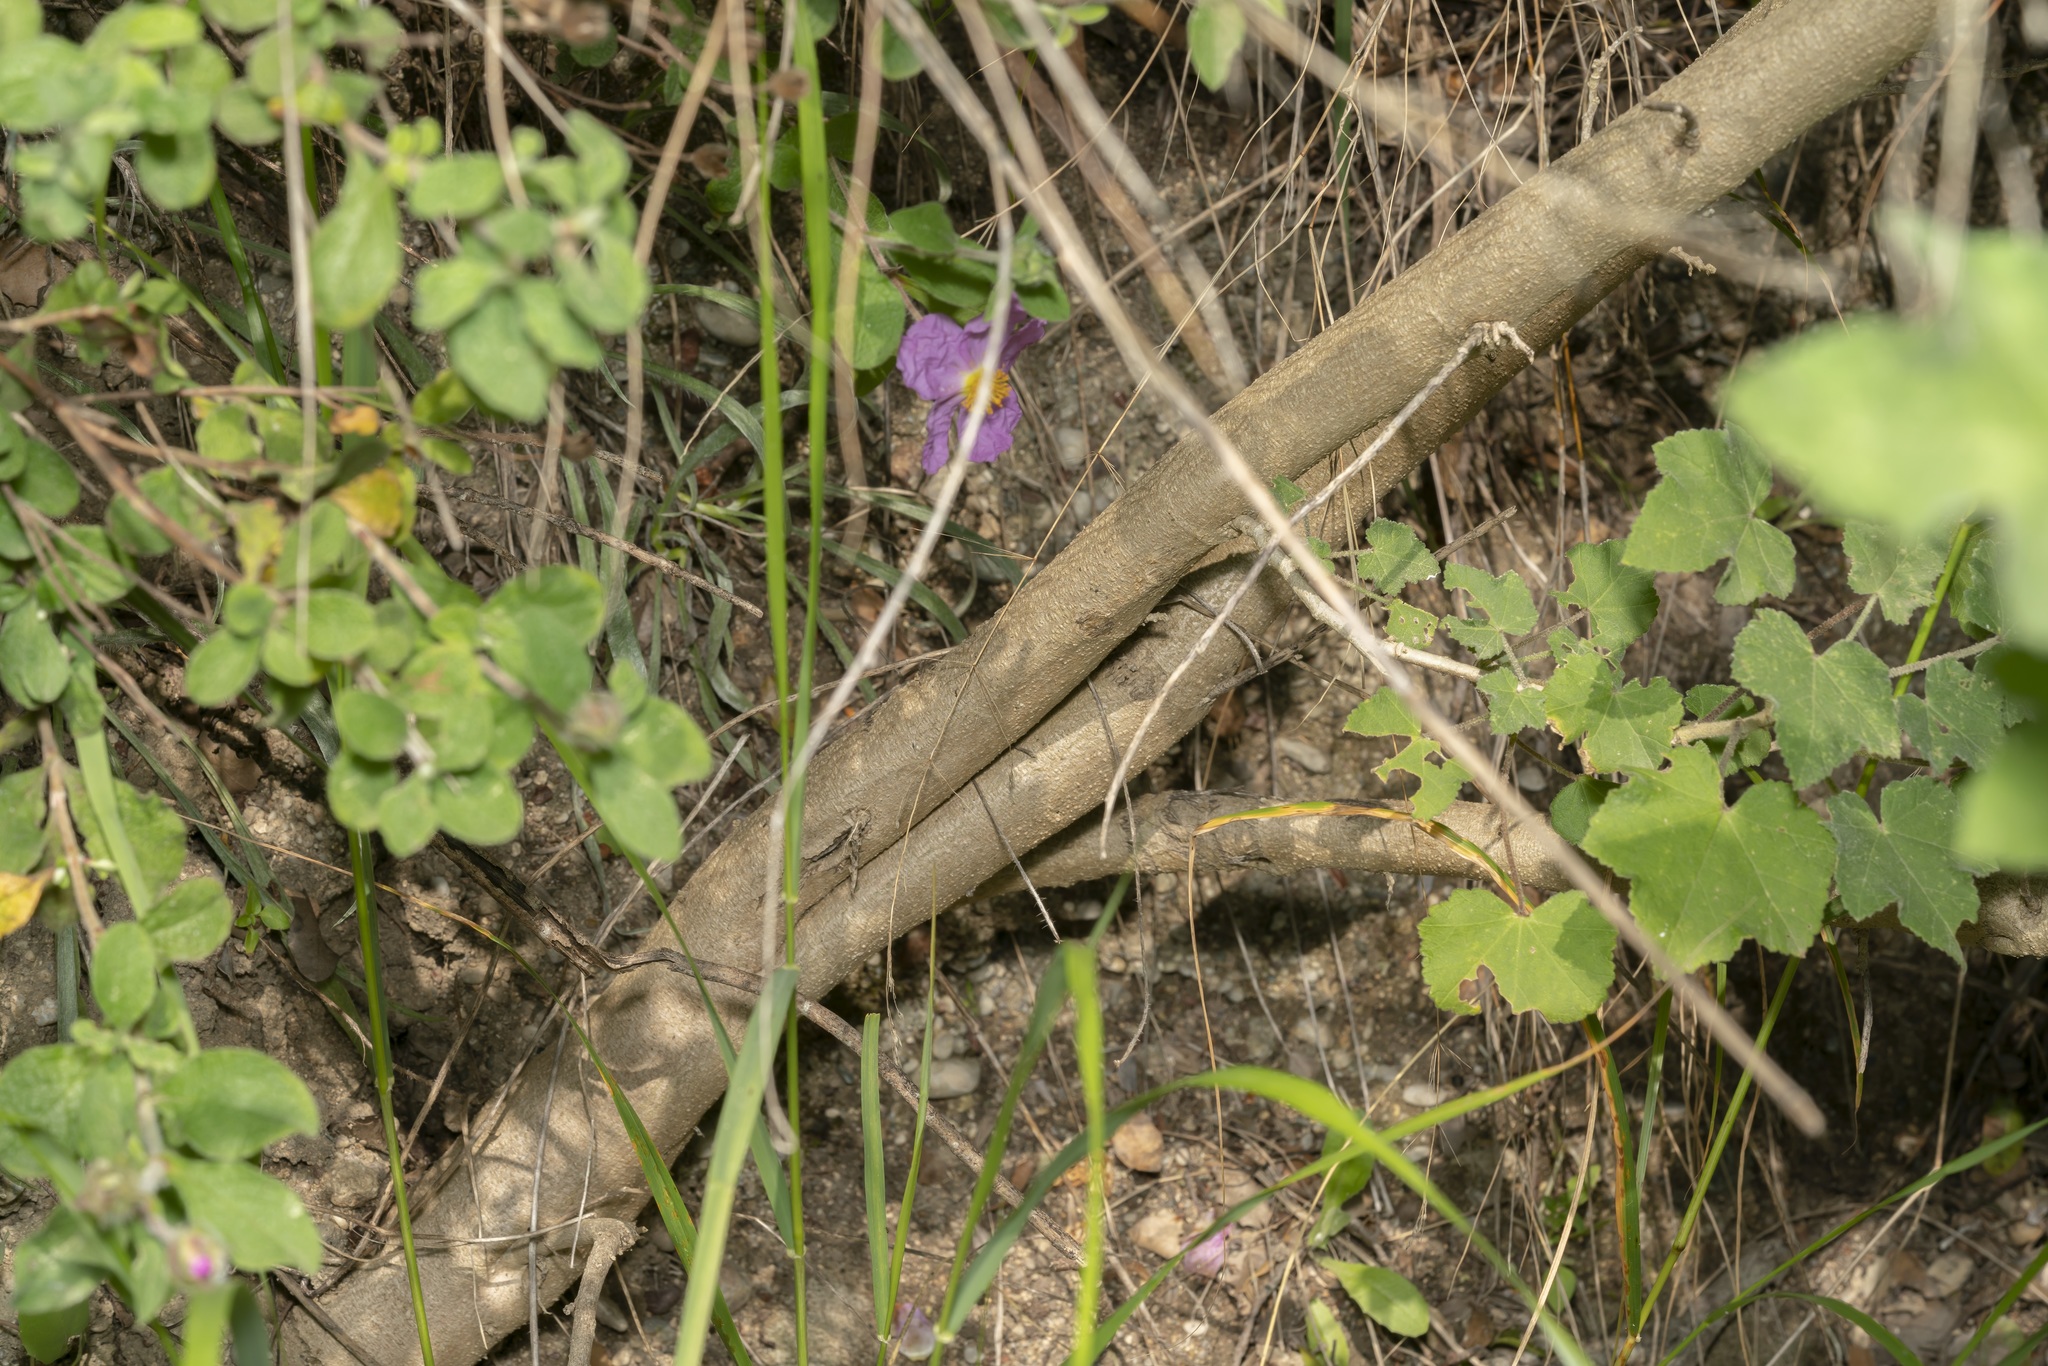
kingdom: Plantae
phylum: Tracheophyta
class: Magnoliopsida
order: Malvales
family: Malvaceae
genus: Malva
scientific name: Malva unguiculata
